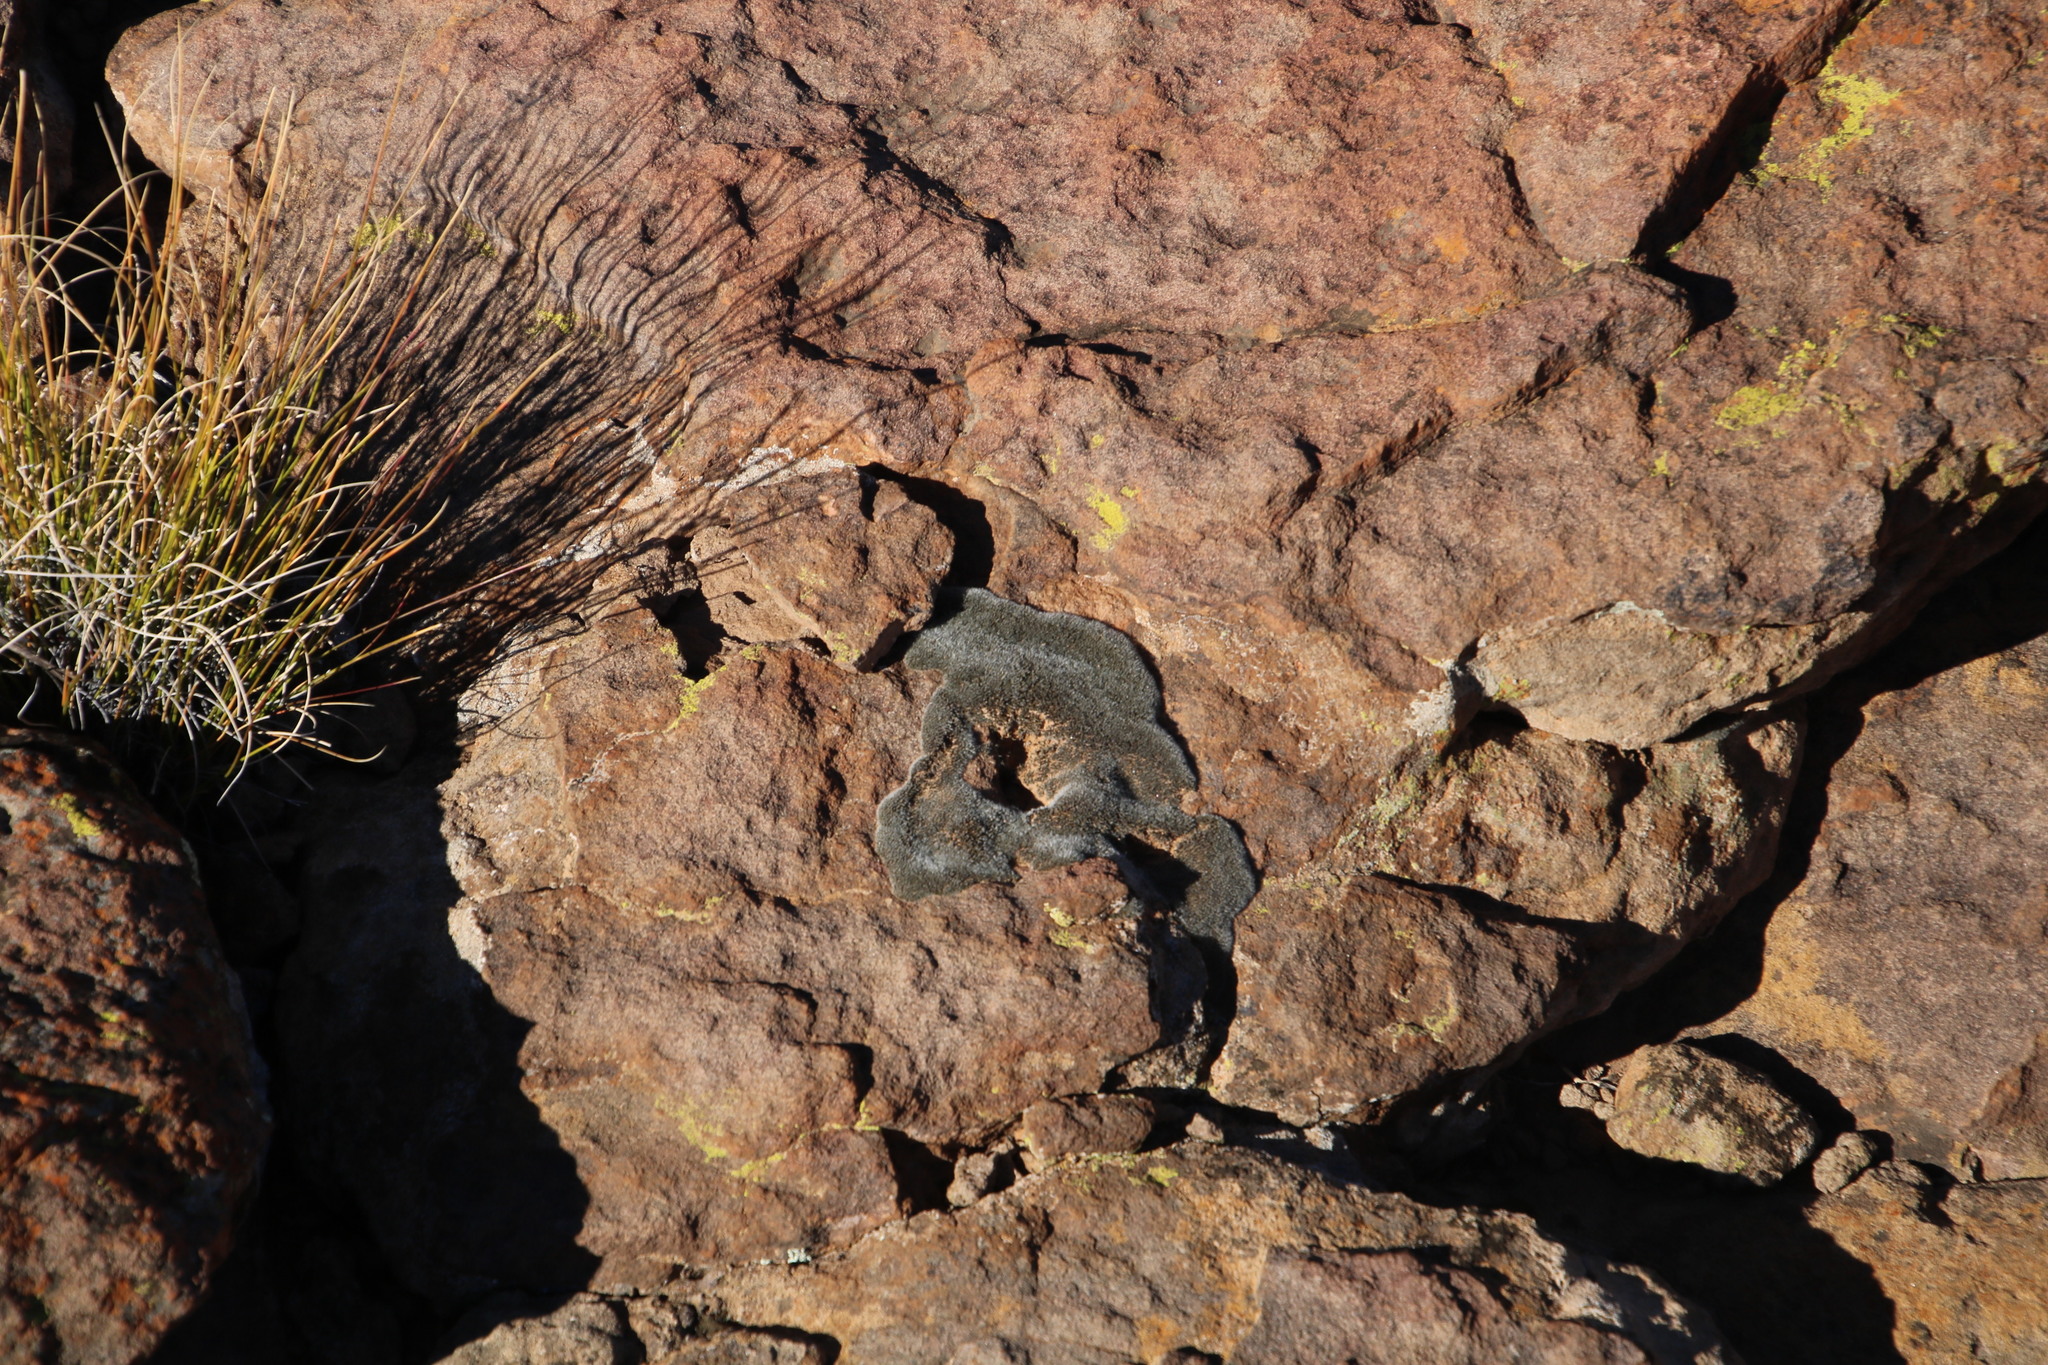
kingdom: Plantae
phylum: Bryophyta
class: Bryopsida
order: Grimmiales
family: Grimmiaceae
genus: Grimmia
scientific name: Grimmia laevigata
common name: Hoary grimmia
